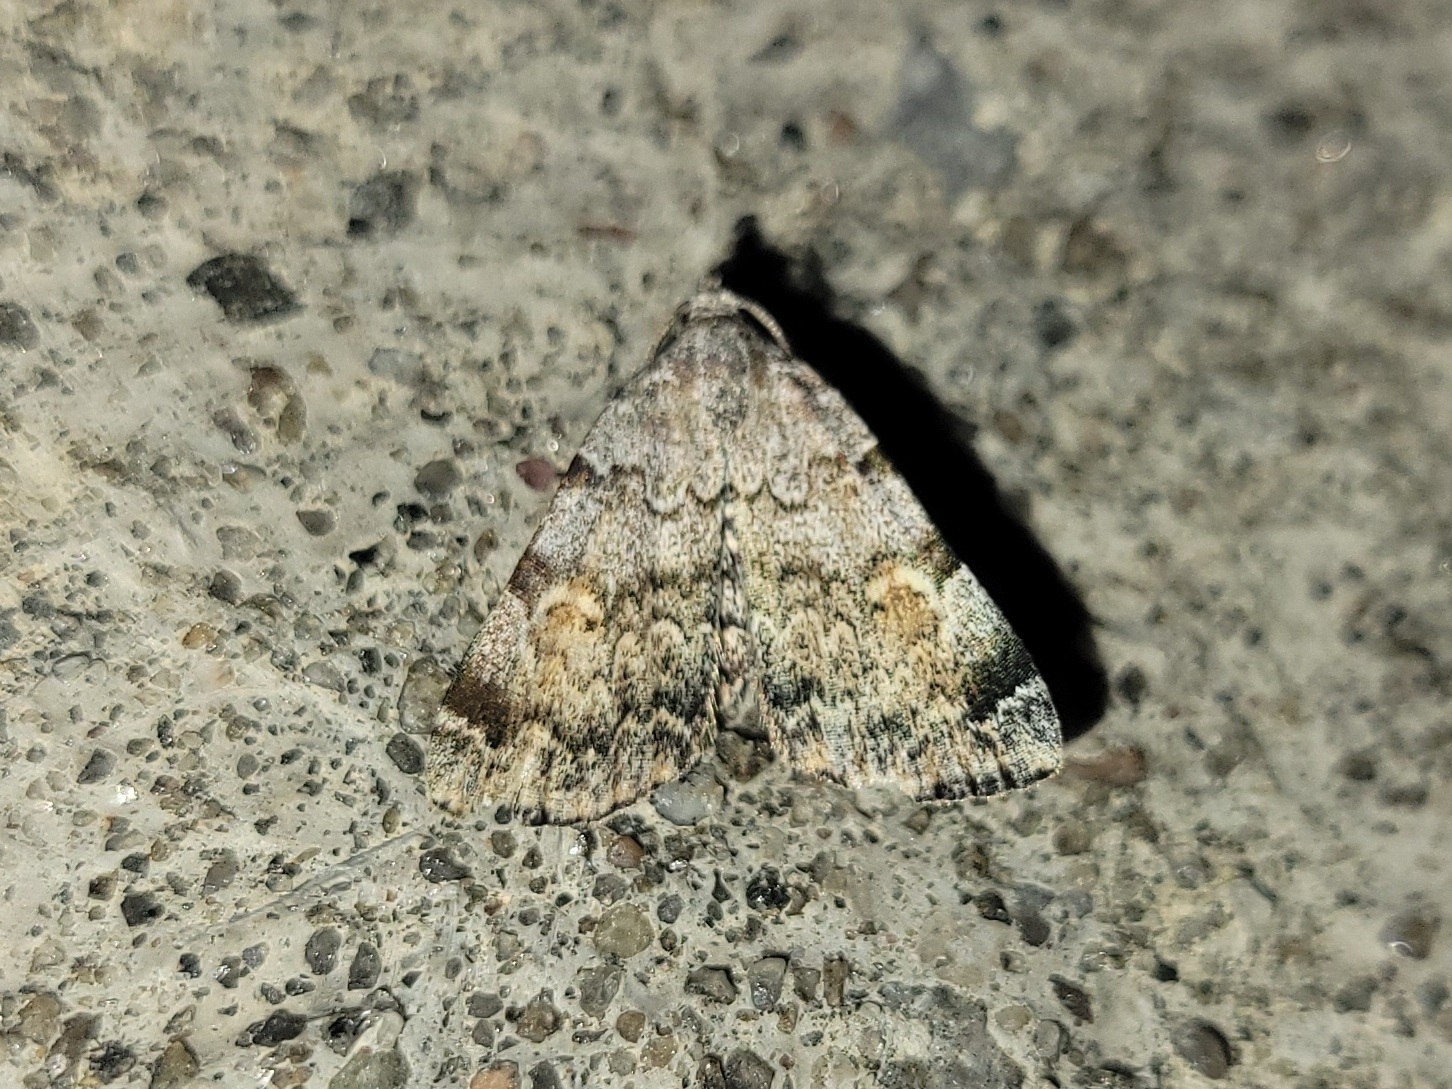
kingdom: Animalia
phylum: Arthropoda
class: Insecta
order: Lepidoptera
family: Erebidae
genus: Idia
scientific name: Idia americalis
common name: American idia moth
